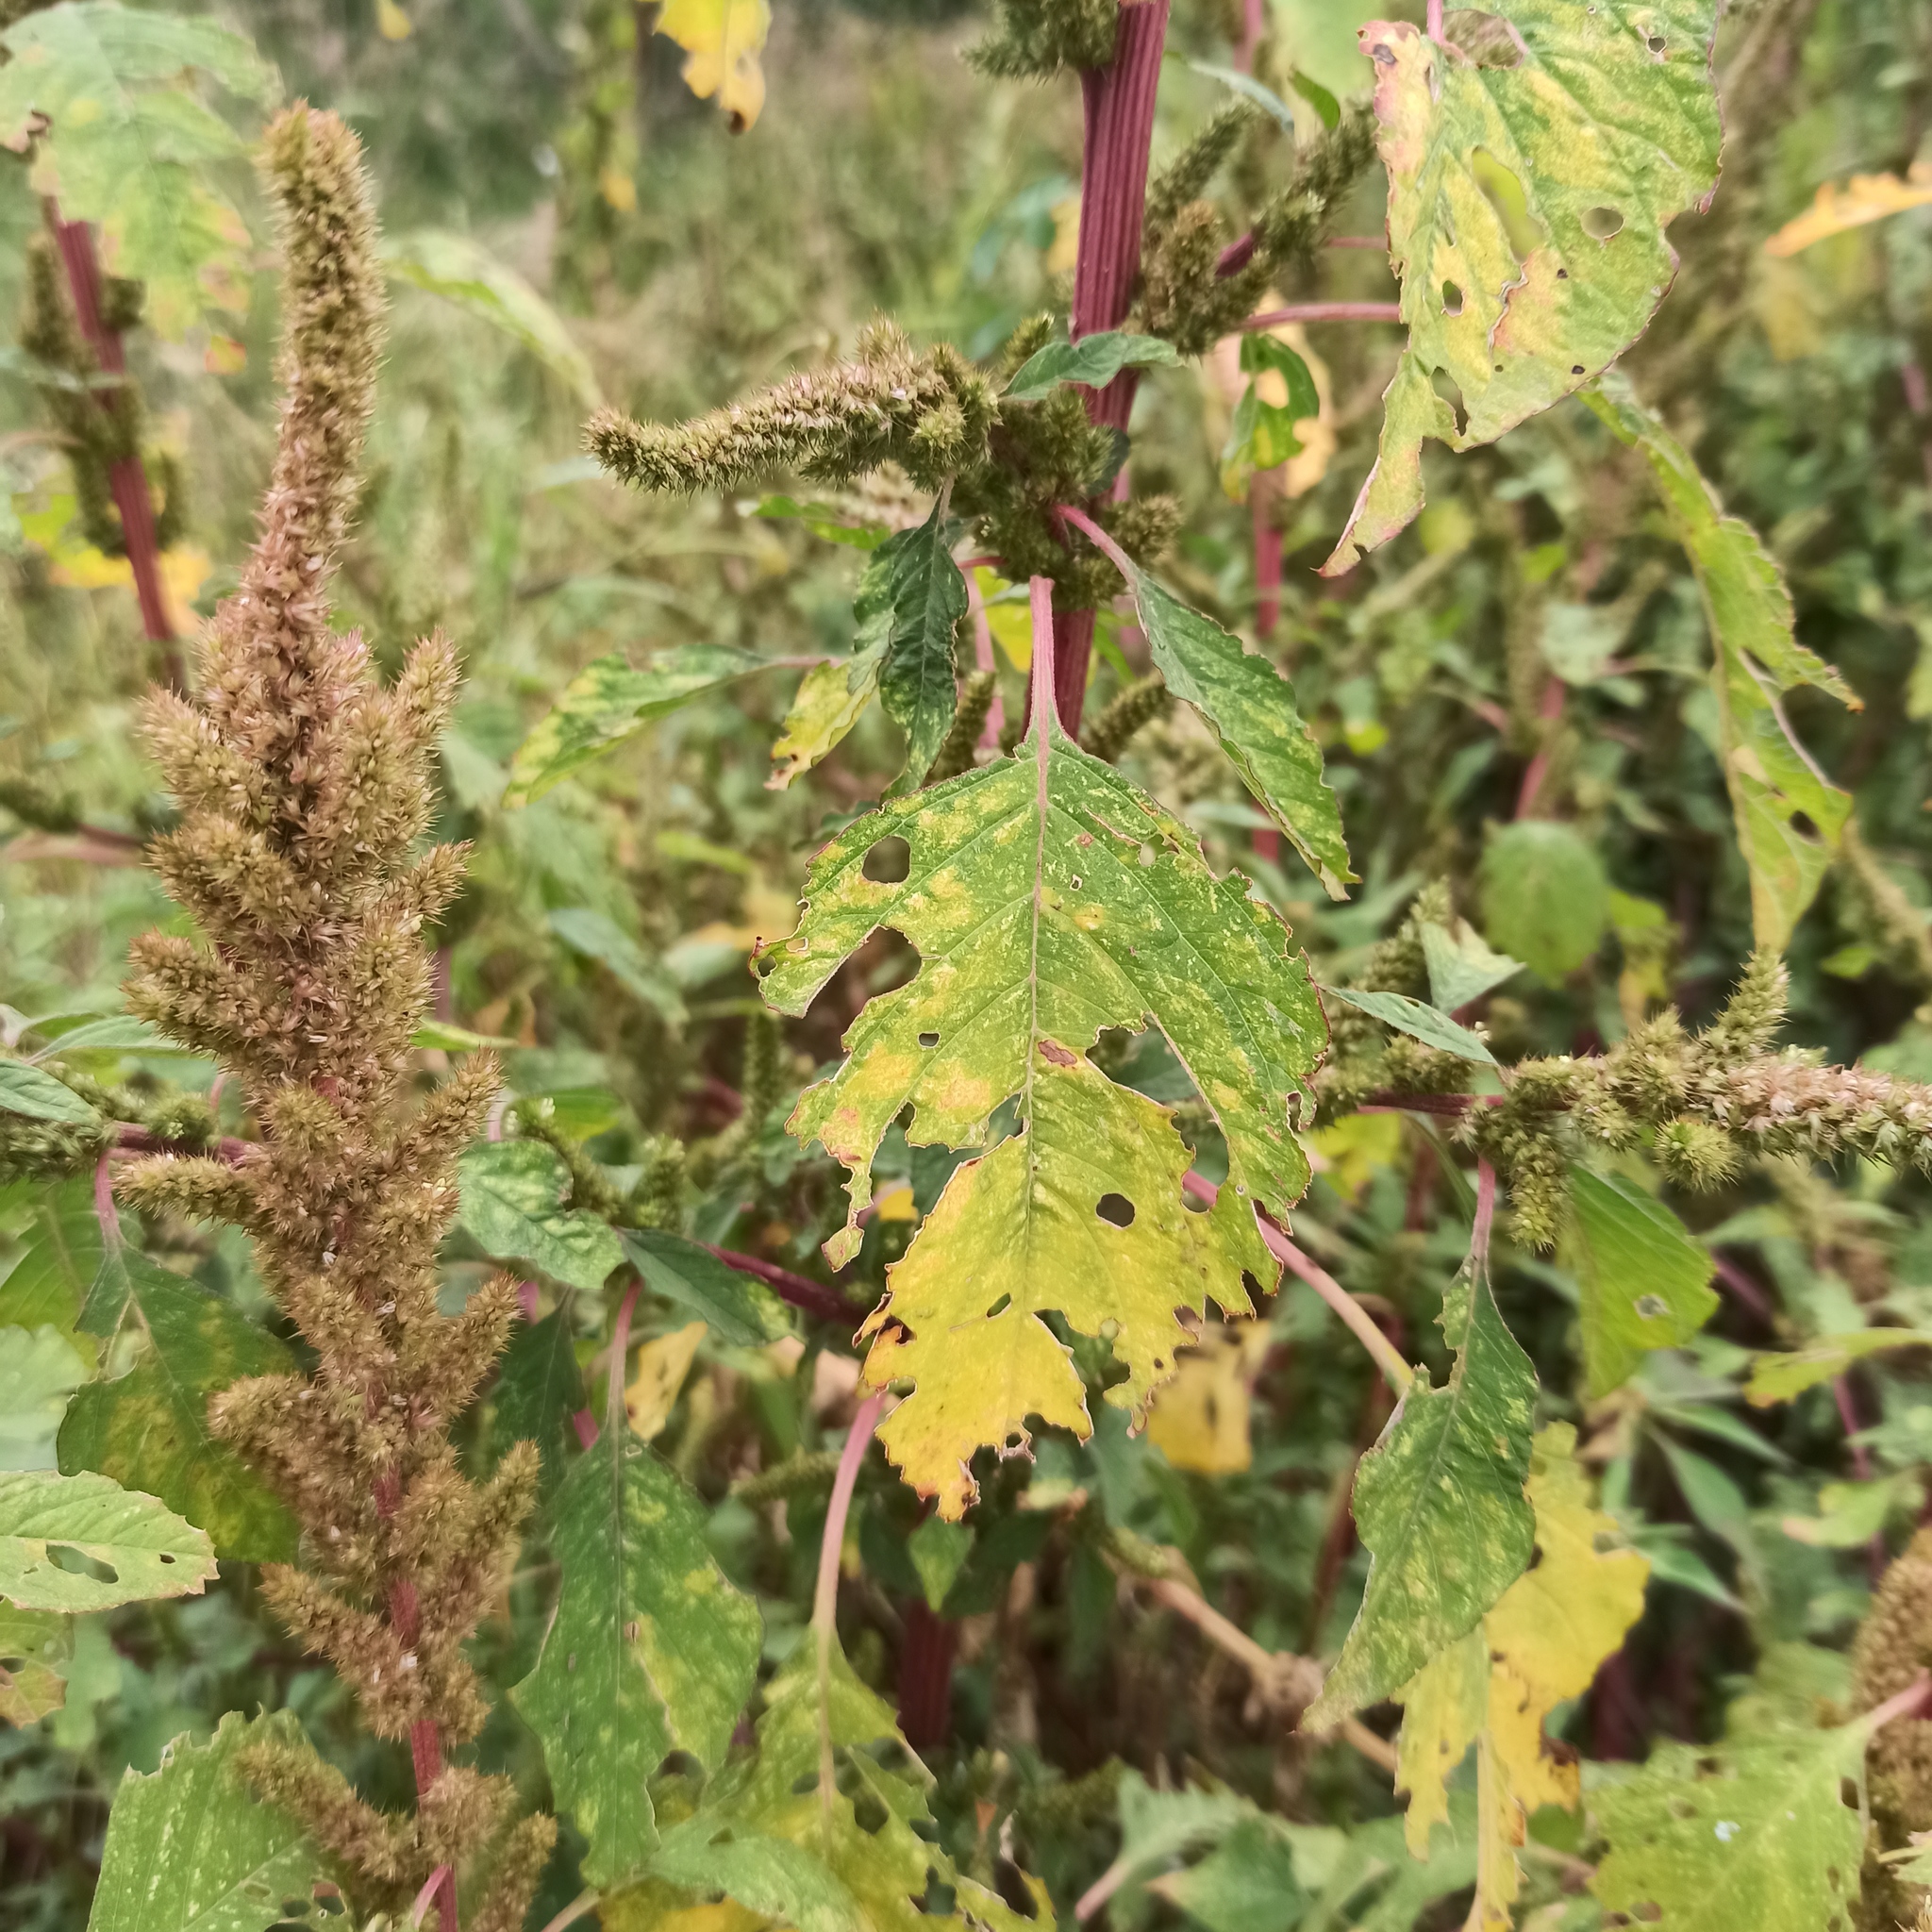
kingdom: Plantae
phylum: Tracheophyta
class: Magnoliopsida
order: Caryophyllales
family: Amaranthaceae
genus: Amaranthus
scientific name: Amaranthus powellii
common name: Powell's amaranth
